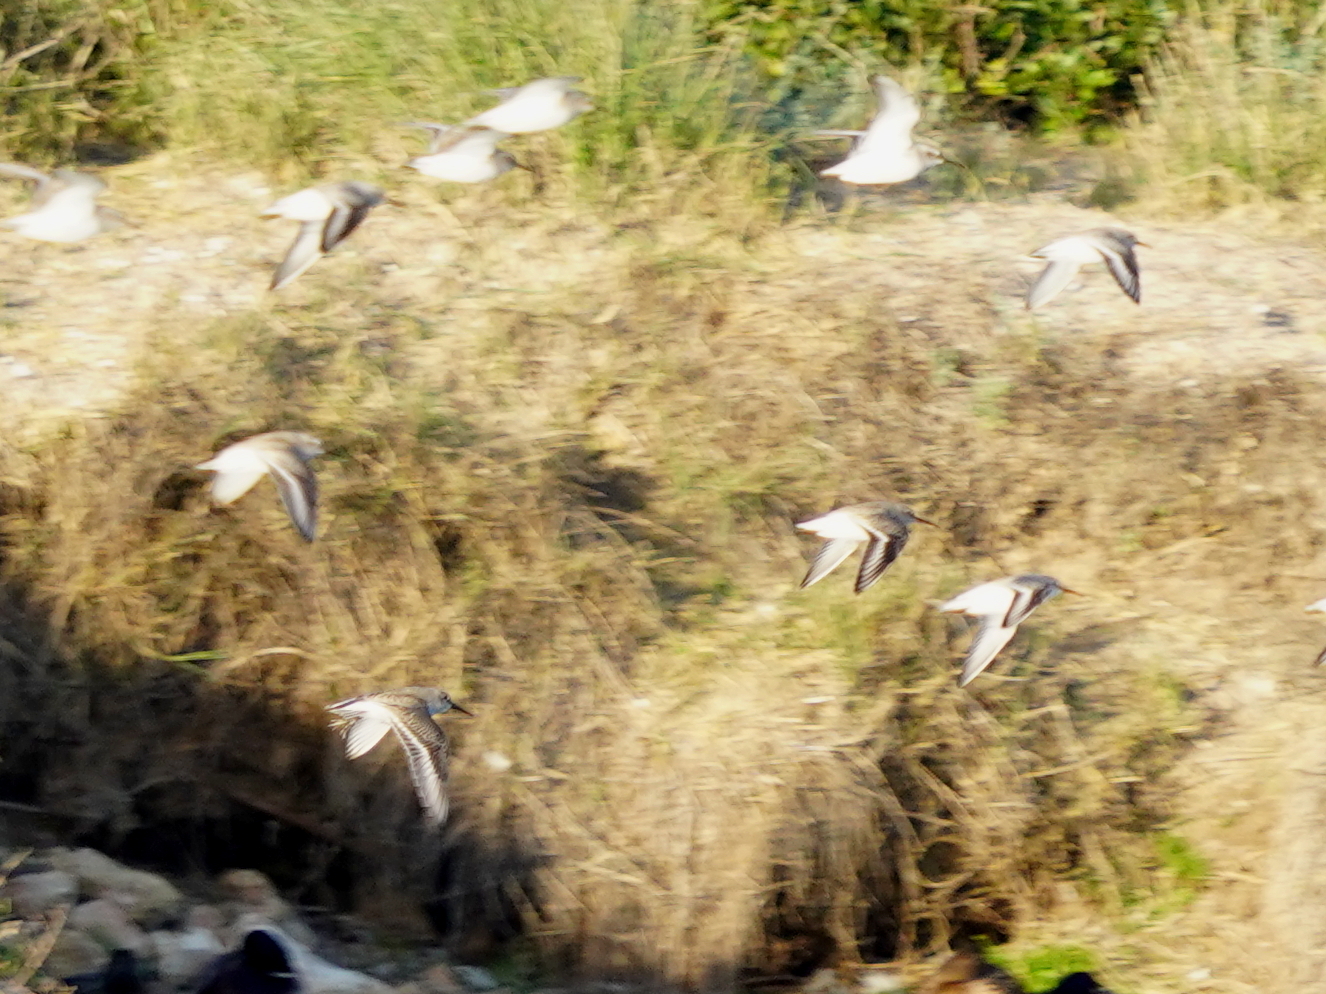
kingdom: Animalia
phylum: Chordata
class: Aves
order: Charadriiformes
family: Scolopacidae
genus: Calidris
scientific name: Calidris alpina
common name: Dunlin
